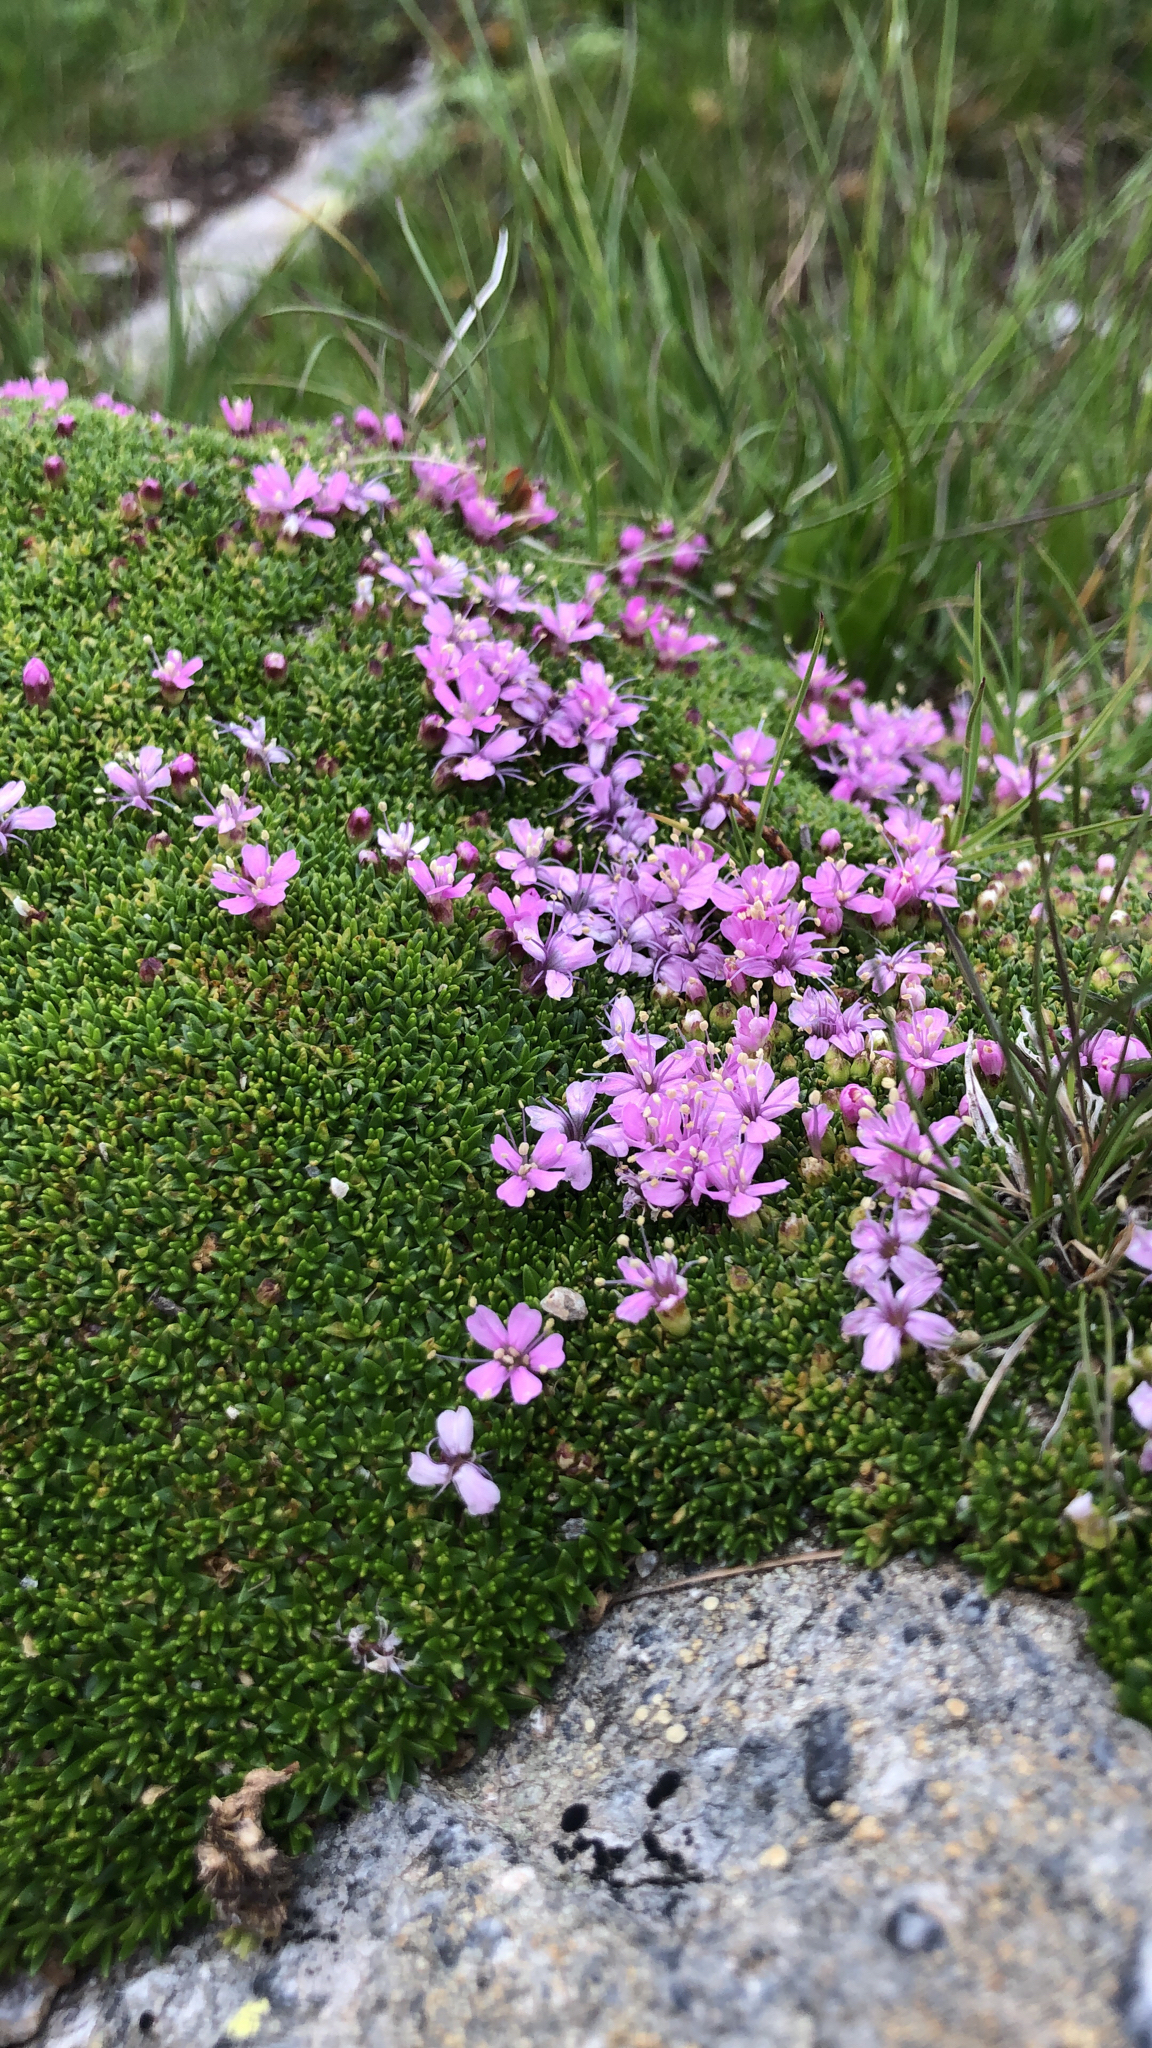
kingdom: Plantae
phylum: Tracheophyta
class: Magnoliopsida
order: Caryophyllales
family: Caryophyllaceae
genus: Silene
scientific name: Silene acaulis
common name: Moss campion
